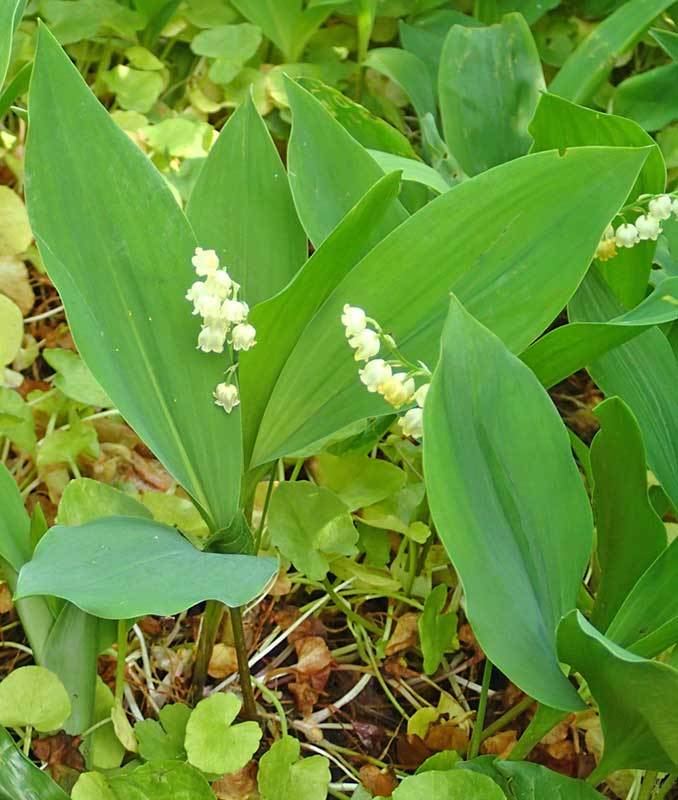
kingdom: Plantae
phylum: Tracheophyta
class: Liliopsida
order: Asparagales
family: Asparagaceae
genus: Convallaria
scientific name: Convallaria majalis
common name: Lily-of-the-valley
